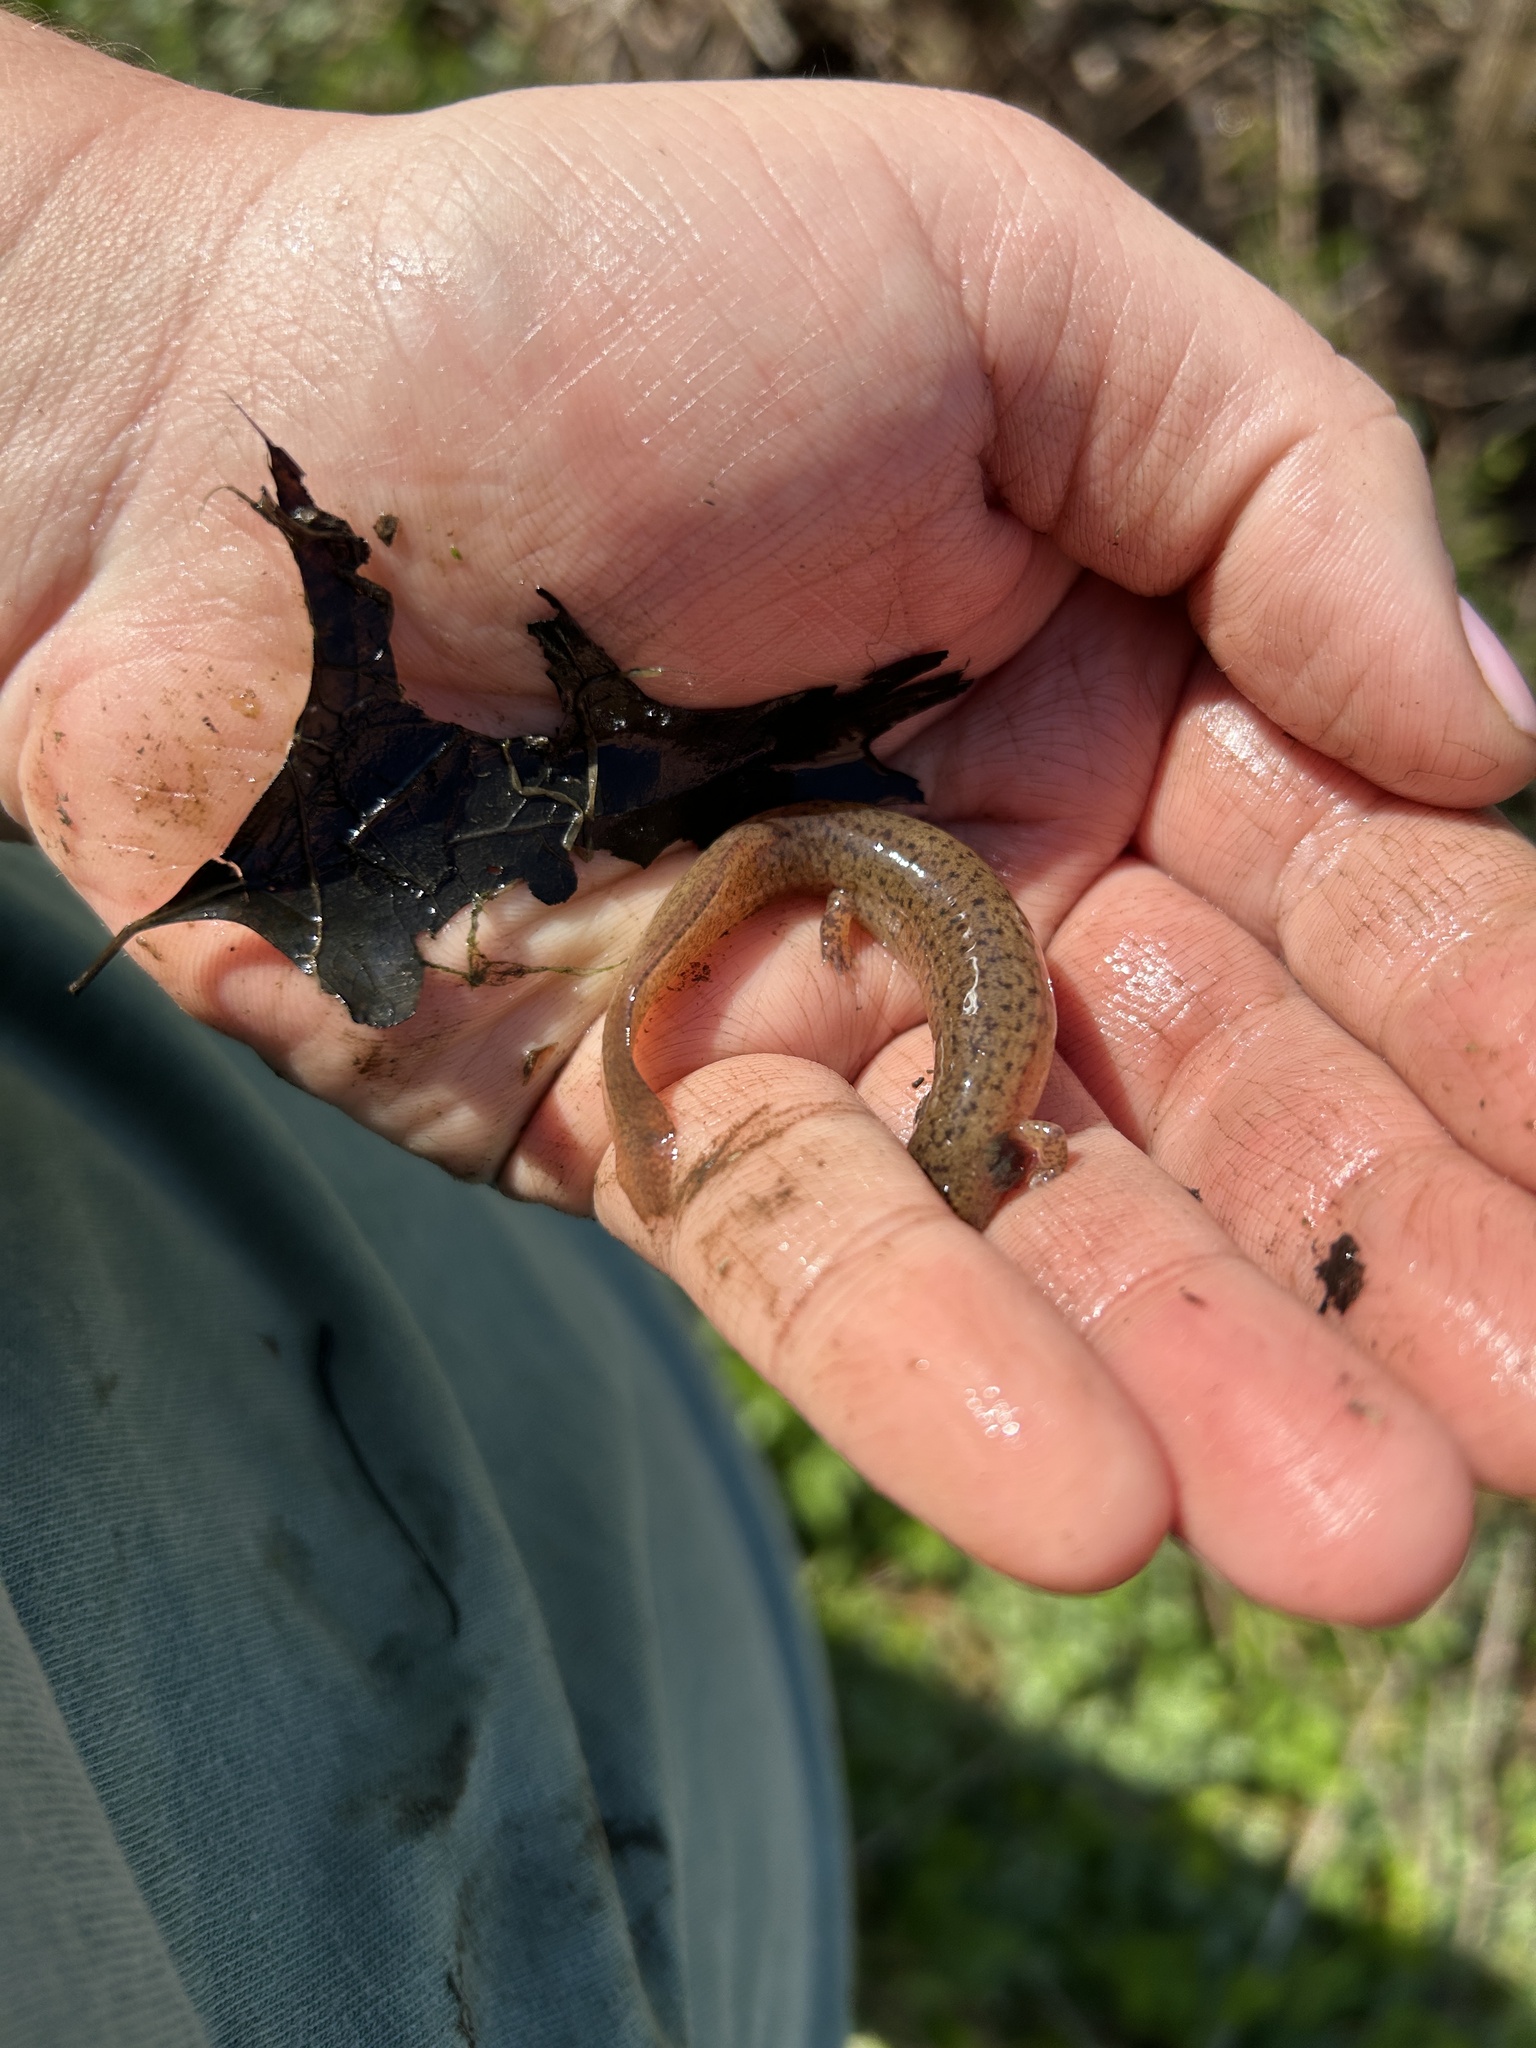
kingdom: Animalia
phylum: Chordata
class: Amphibia
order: Caudata
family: Plethodontidae
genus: Pseudotriton
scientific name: Pseudotriton ruber
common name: Red salamander
